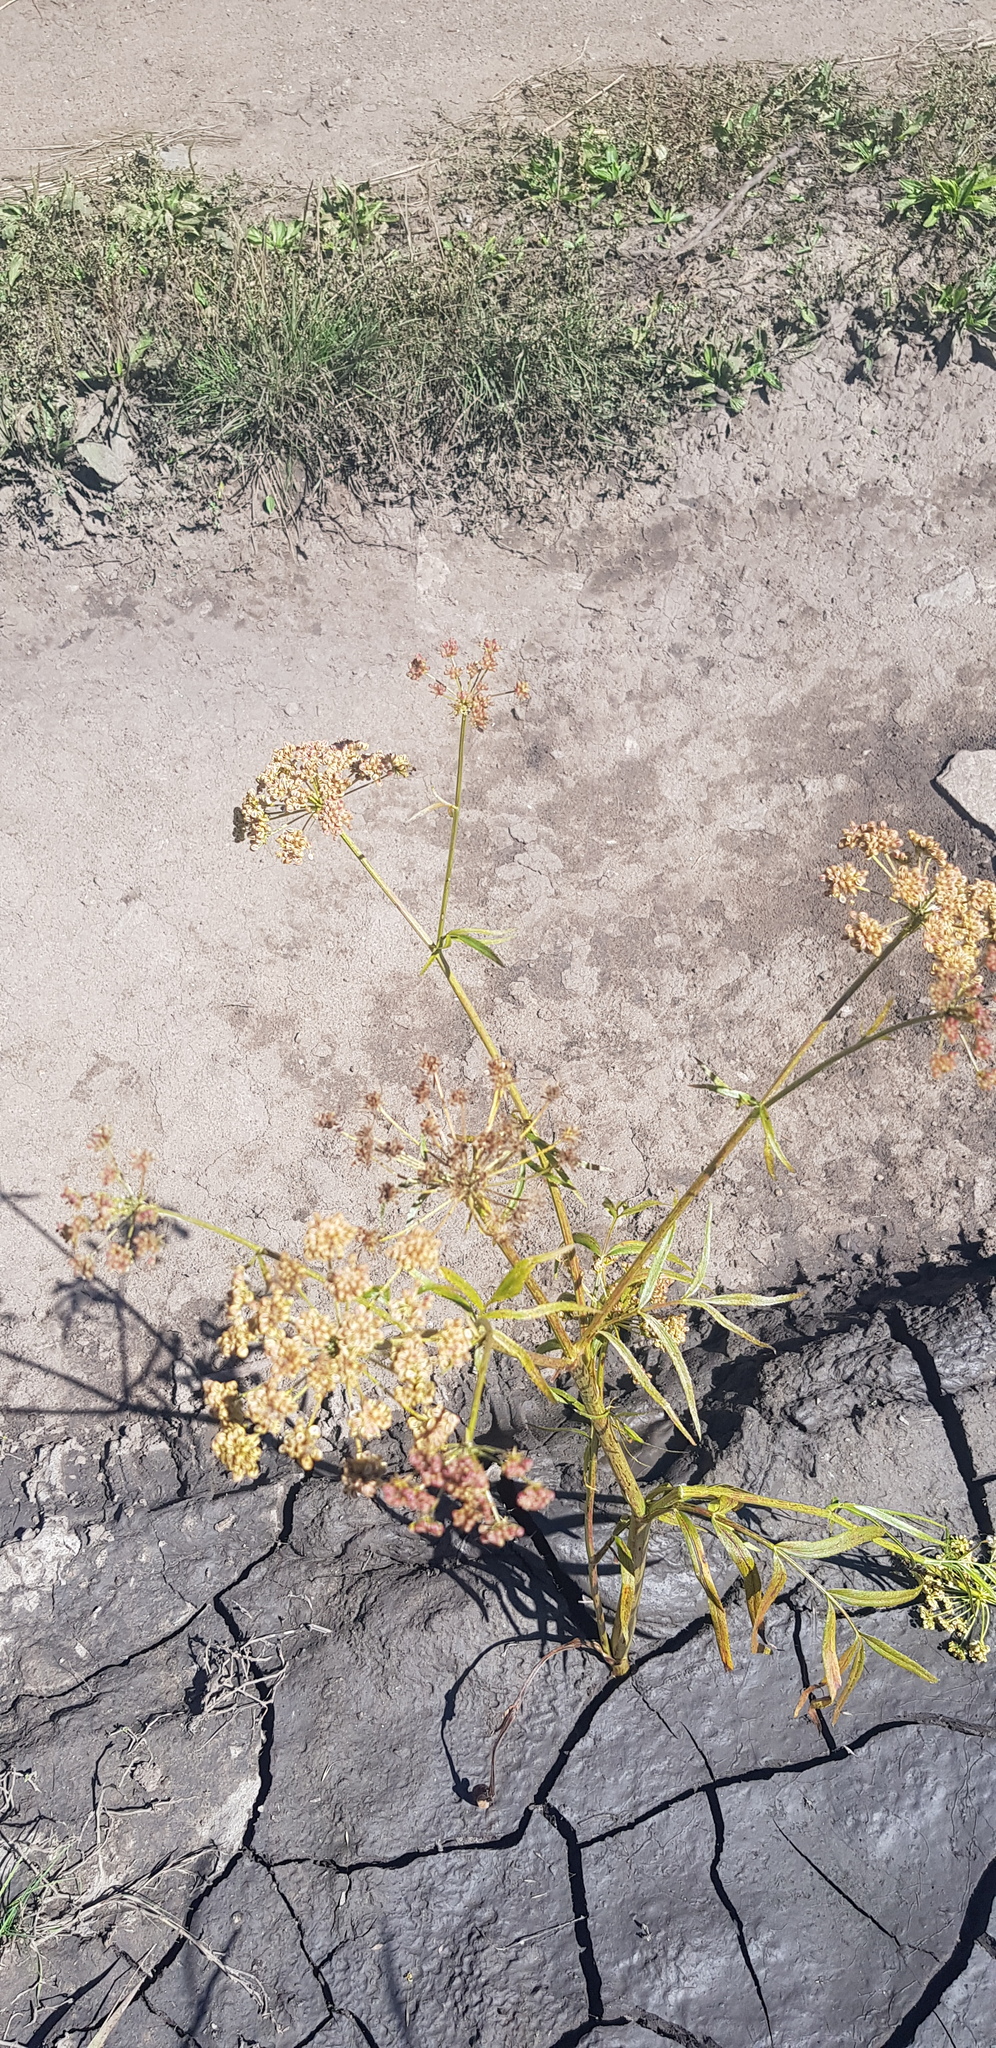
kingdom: Plantae
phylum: Tracheophyta
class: Magnoliopsida
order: Apiales
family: Apiaceae
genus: Sium
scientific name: Sium suave
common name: Hemlock water-parsnip
